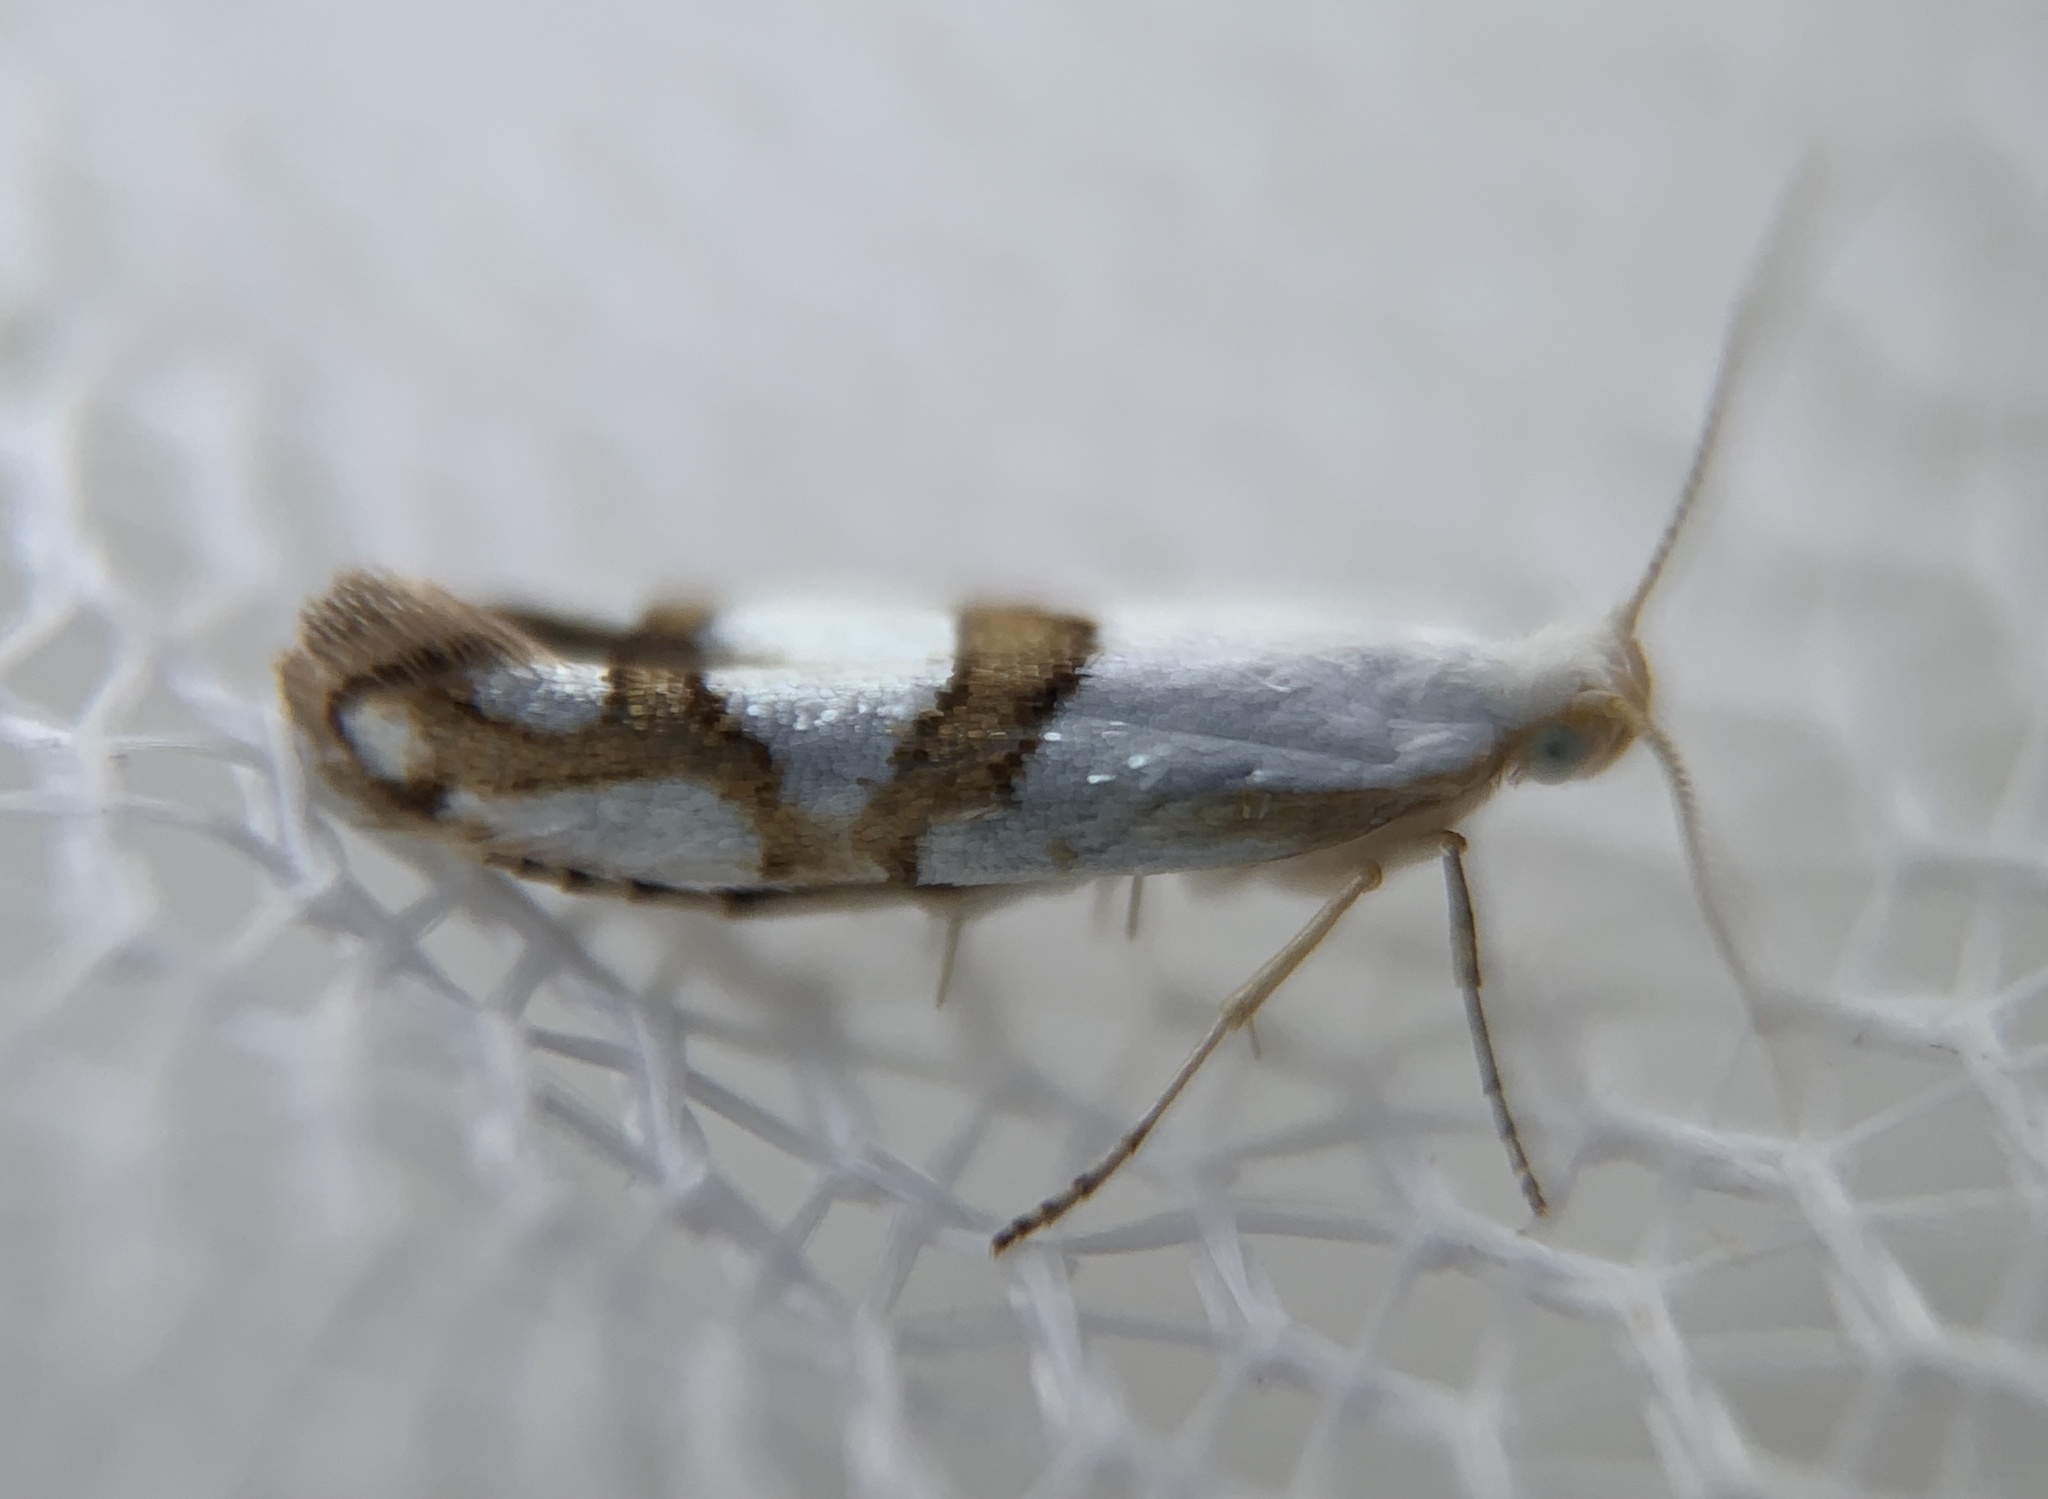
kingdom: Animalia
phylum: Arthropoda
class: Insecta
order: Lepidoptera
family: Argyresthiidae
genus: Argyresthia
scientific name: Argyresthia oreasella
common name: Cherry shoot borer moth
